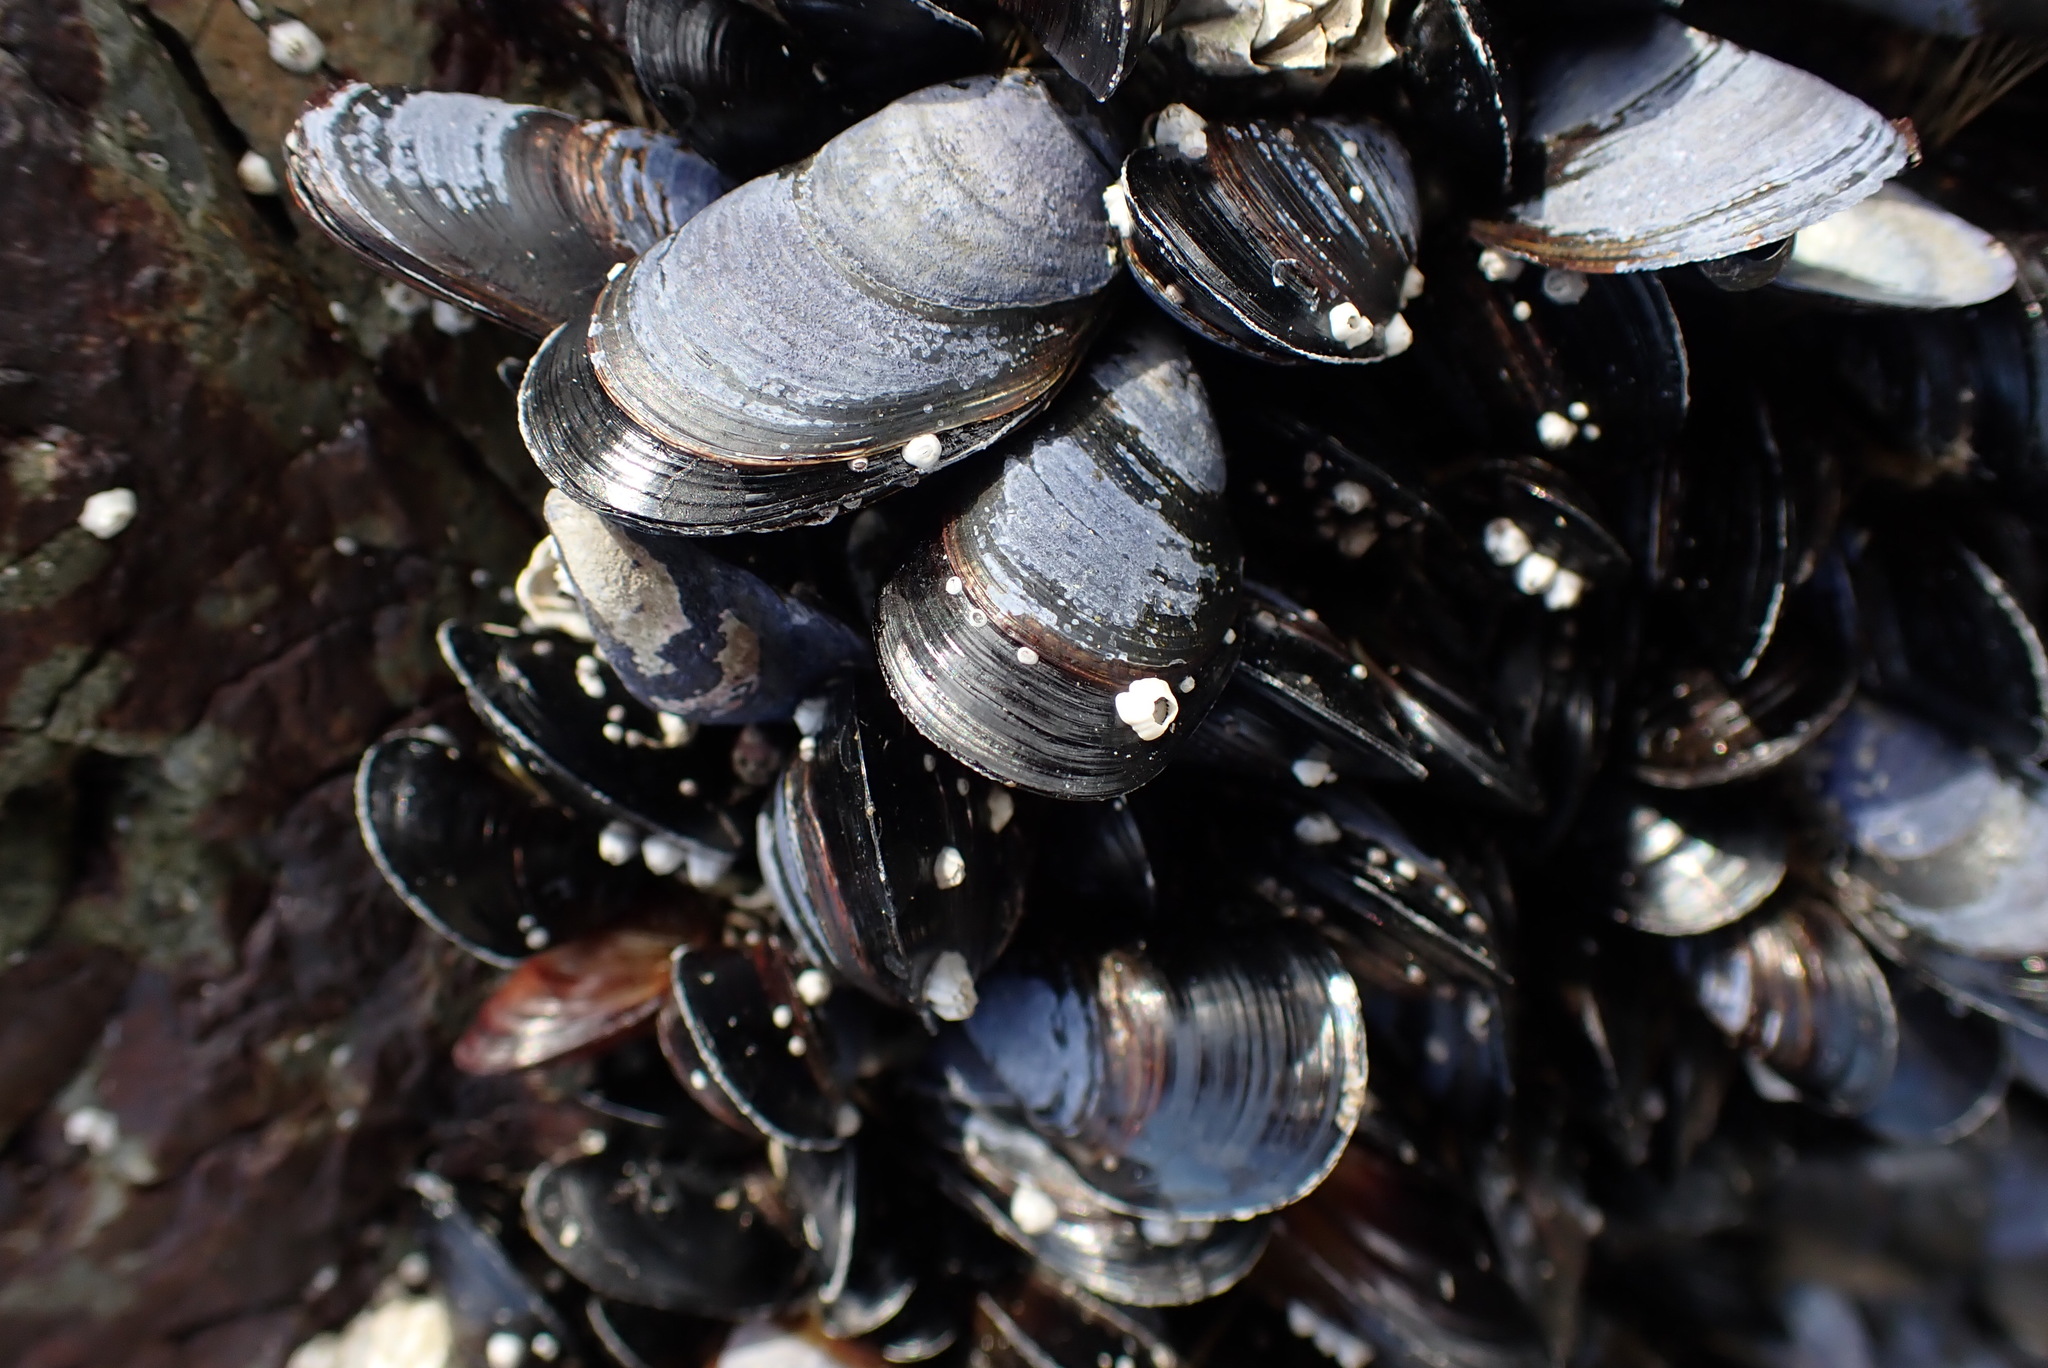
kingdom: Animalia
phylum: Mollusca
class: Bivalvia
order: Mytilida
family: Mytilidae
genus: Mytilus
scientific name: Mytilus
